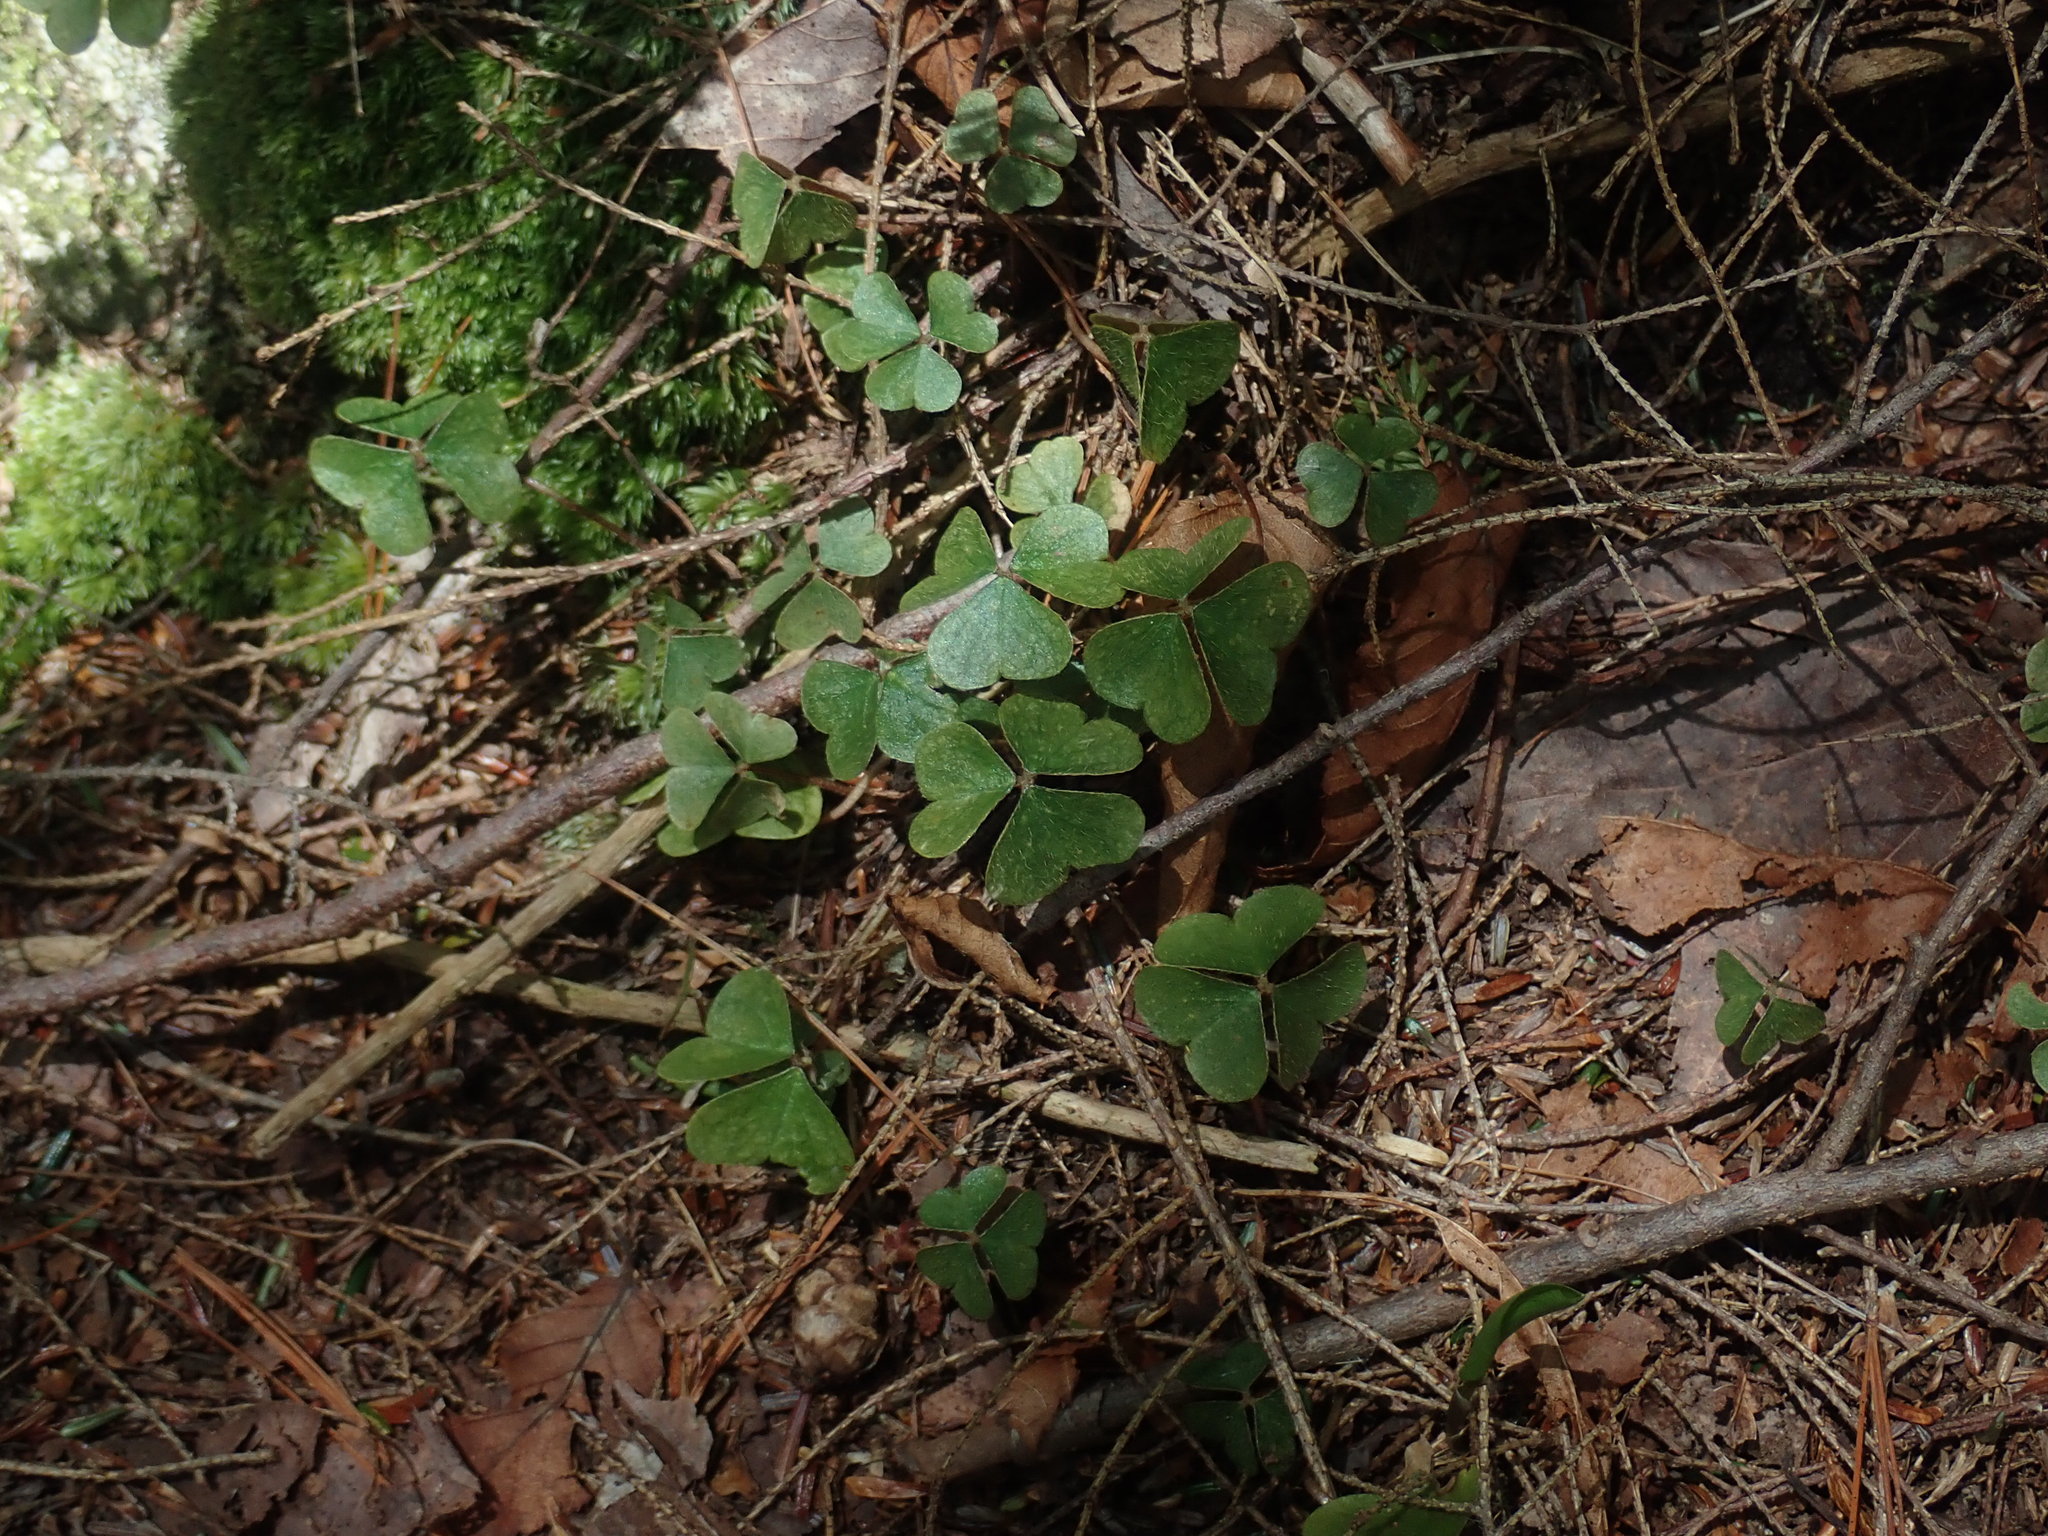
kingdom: Plantae
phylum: Tracheophyta
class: Magnoliopsida
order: Oxalidales
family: Oxalidaceae
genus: Oxalis
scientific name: Oxalis montana
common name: American wood-sorrel
